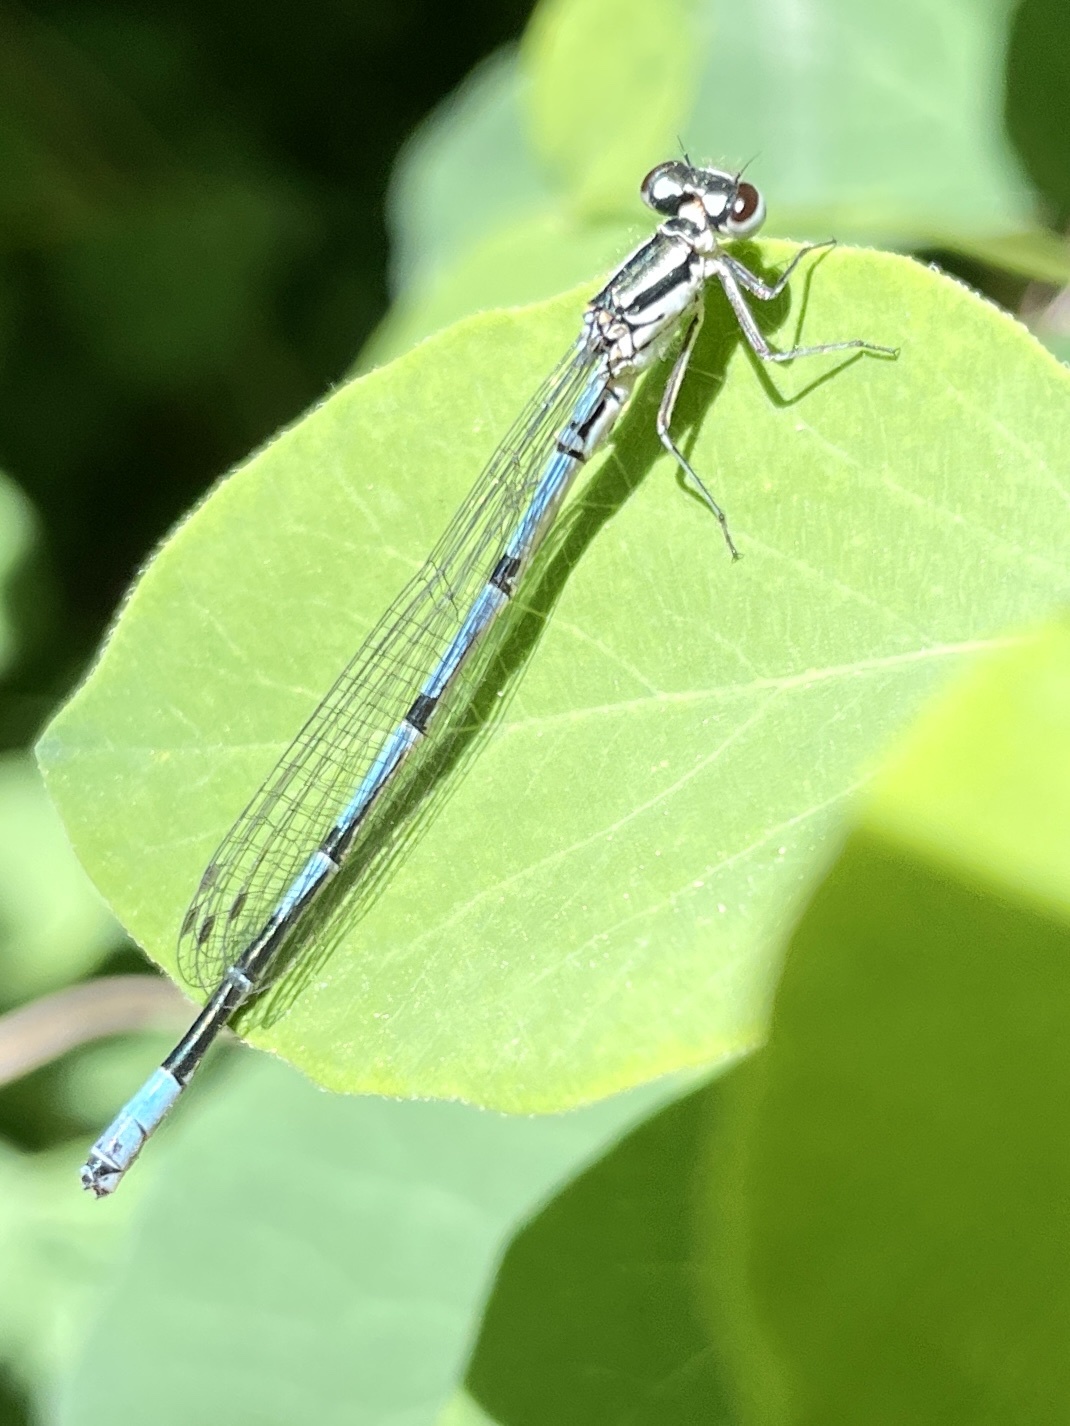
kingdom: Animalia
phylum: Arthropoda
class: Insecta
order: Odonata
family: Coenagrionidae
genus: Coenagrion
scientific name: Coenagrion puella
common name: Azure damselfly
